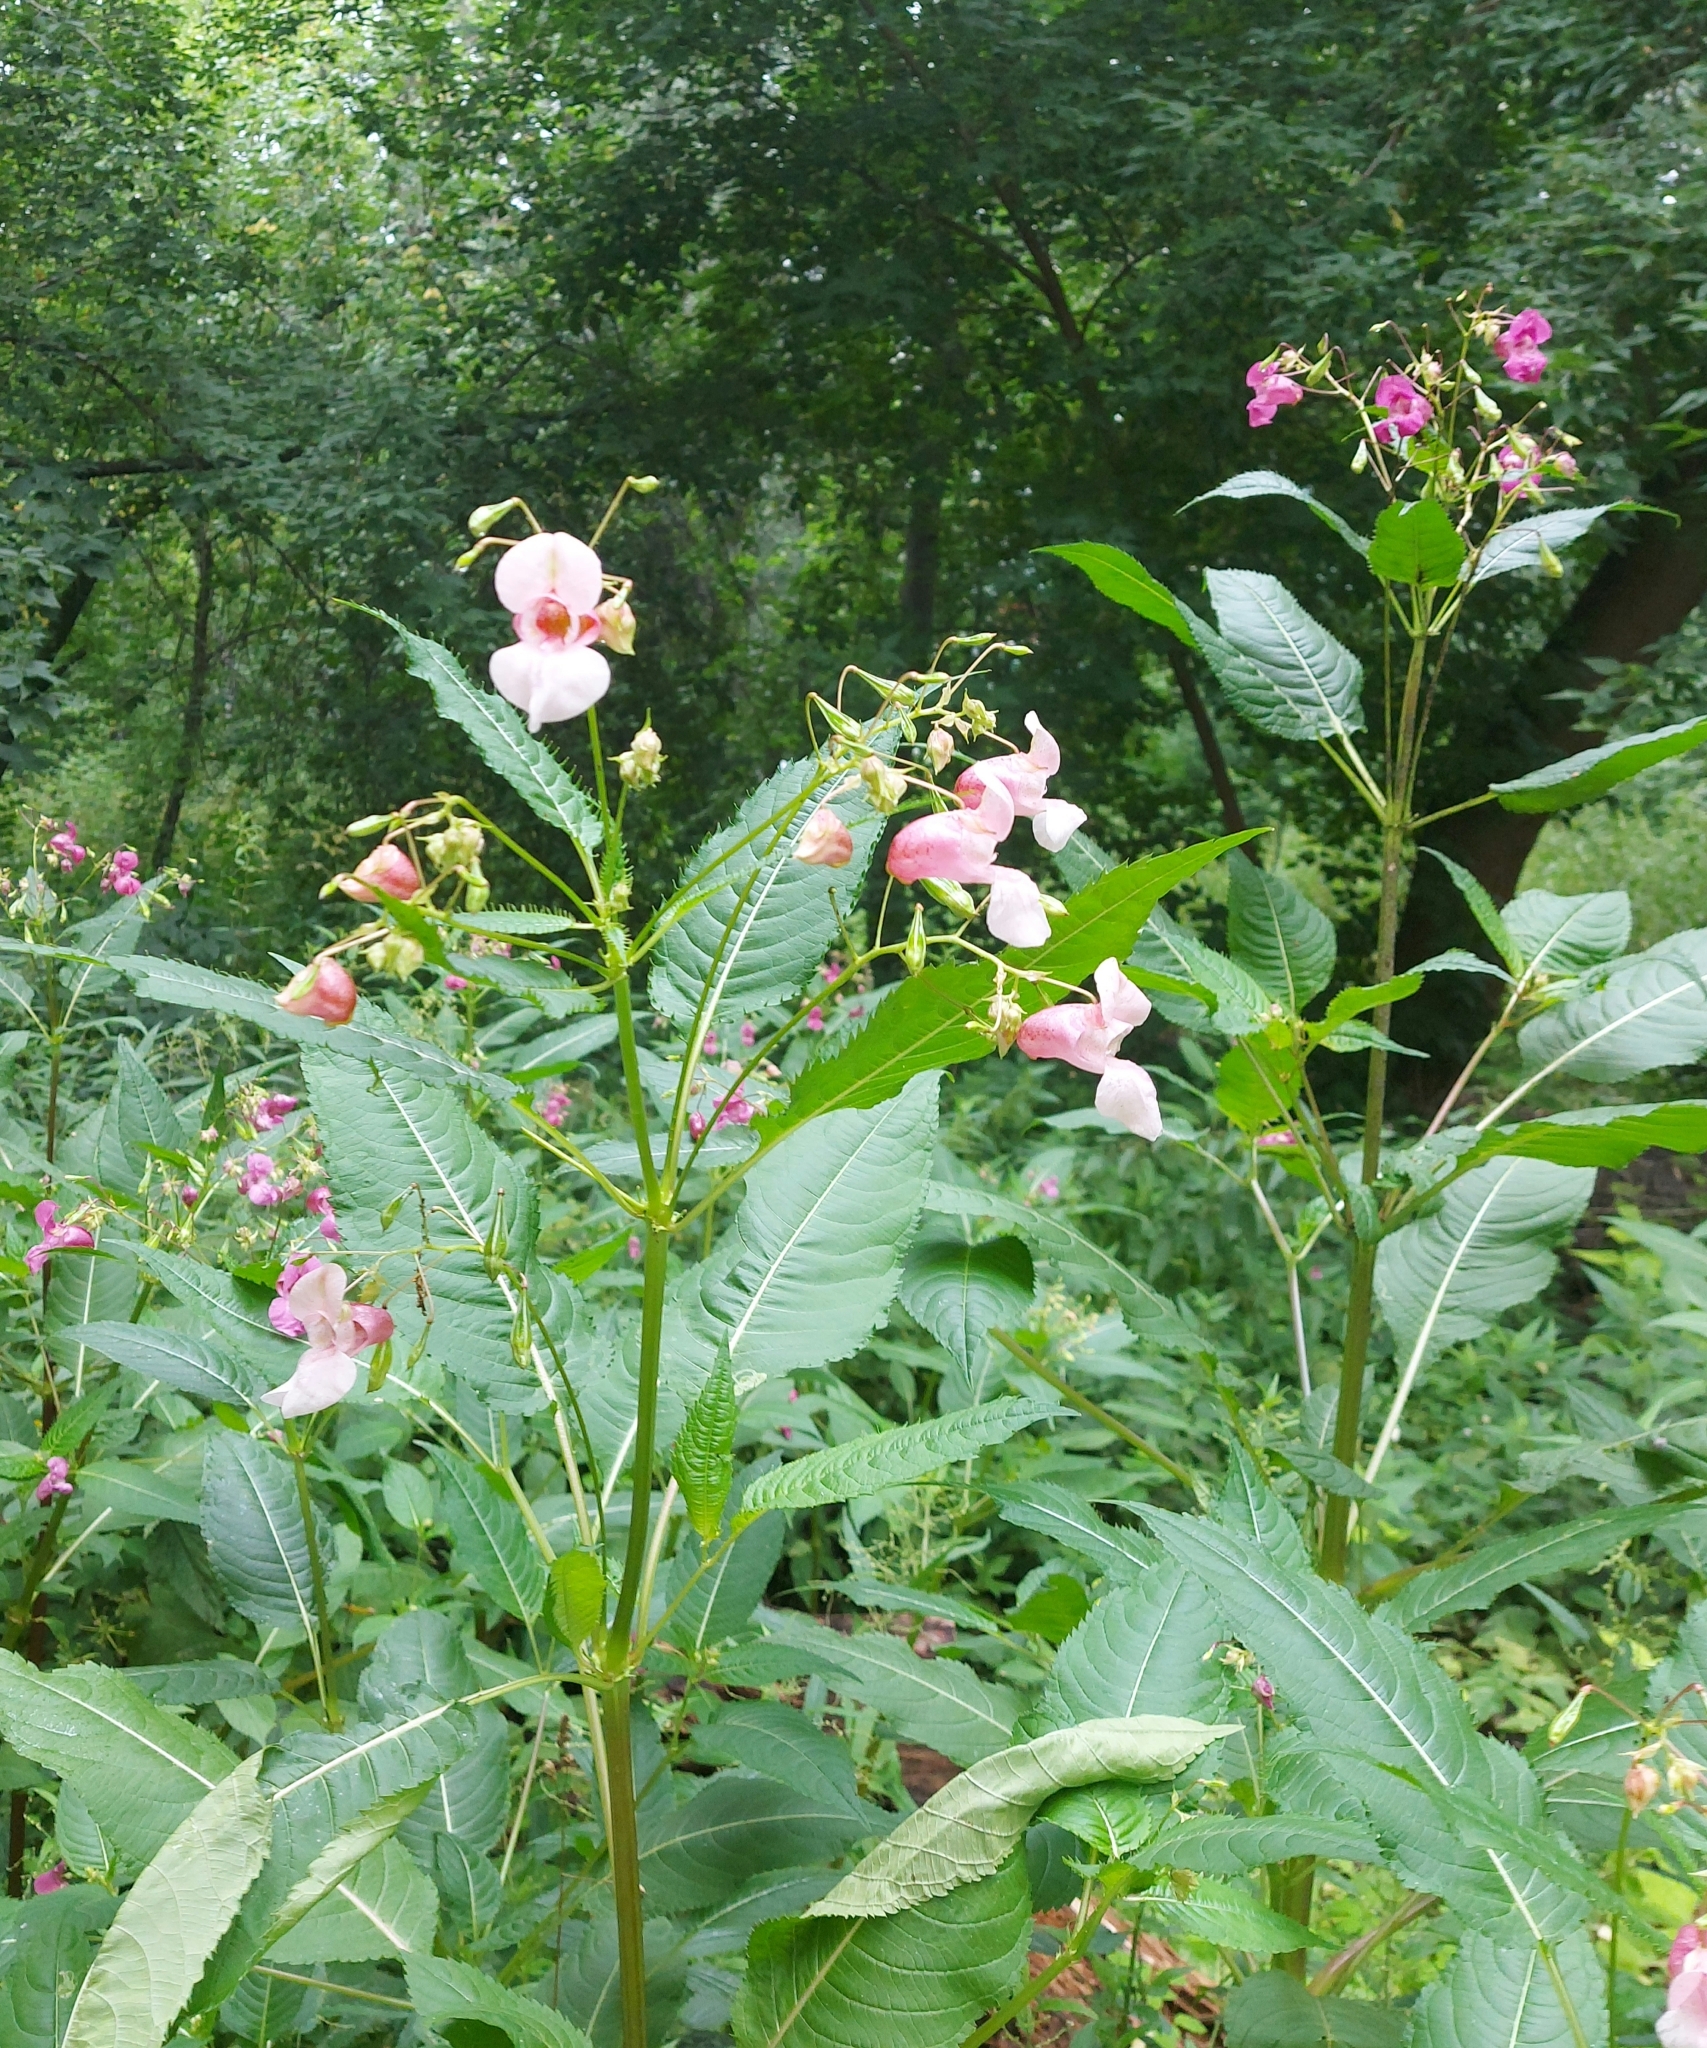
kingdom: Plantae
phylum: Tracheophyta
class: Magnoliopsida
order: Ericales
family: Balsaminaceae
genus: Impatiens
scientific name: Impatiens glandulifera
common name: Himalayan balsam
